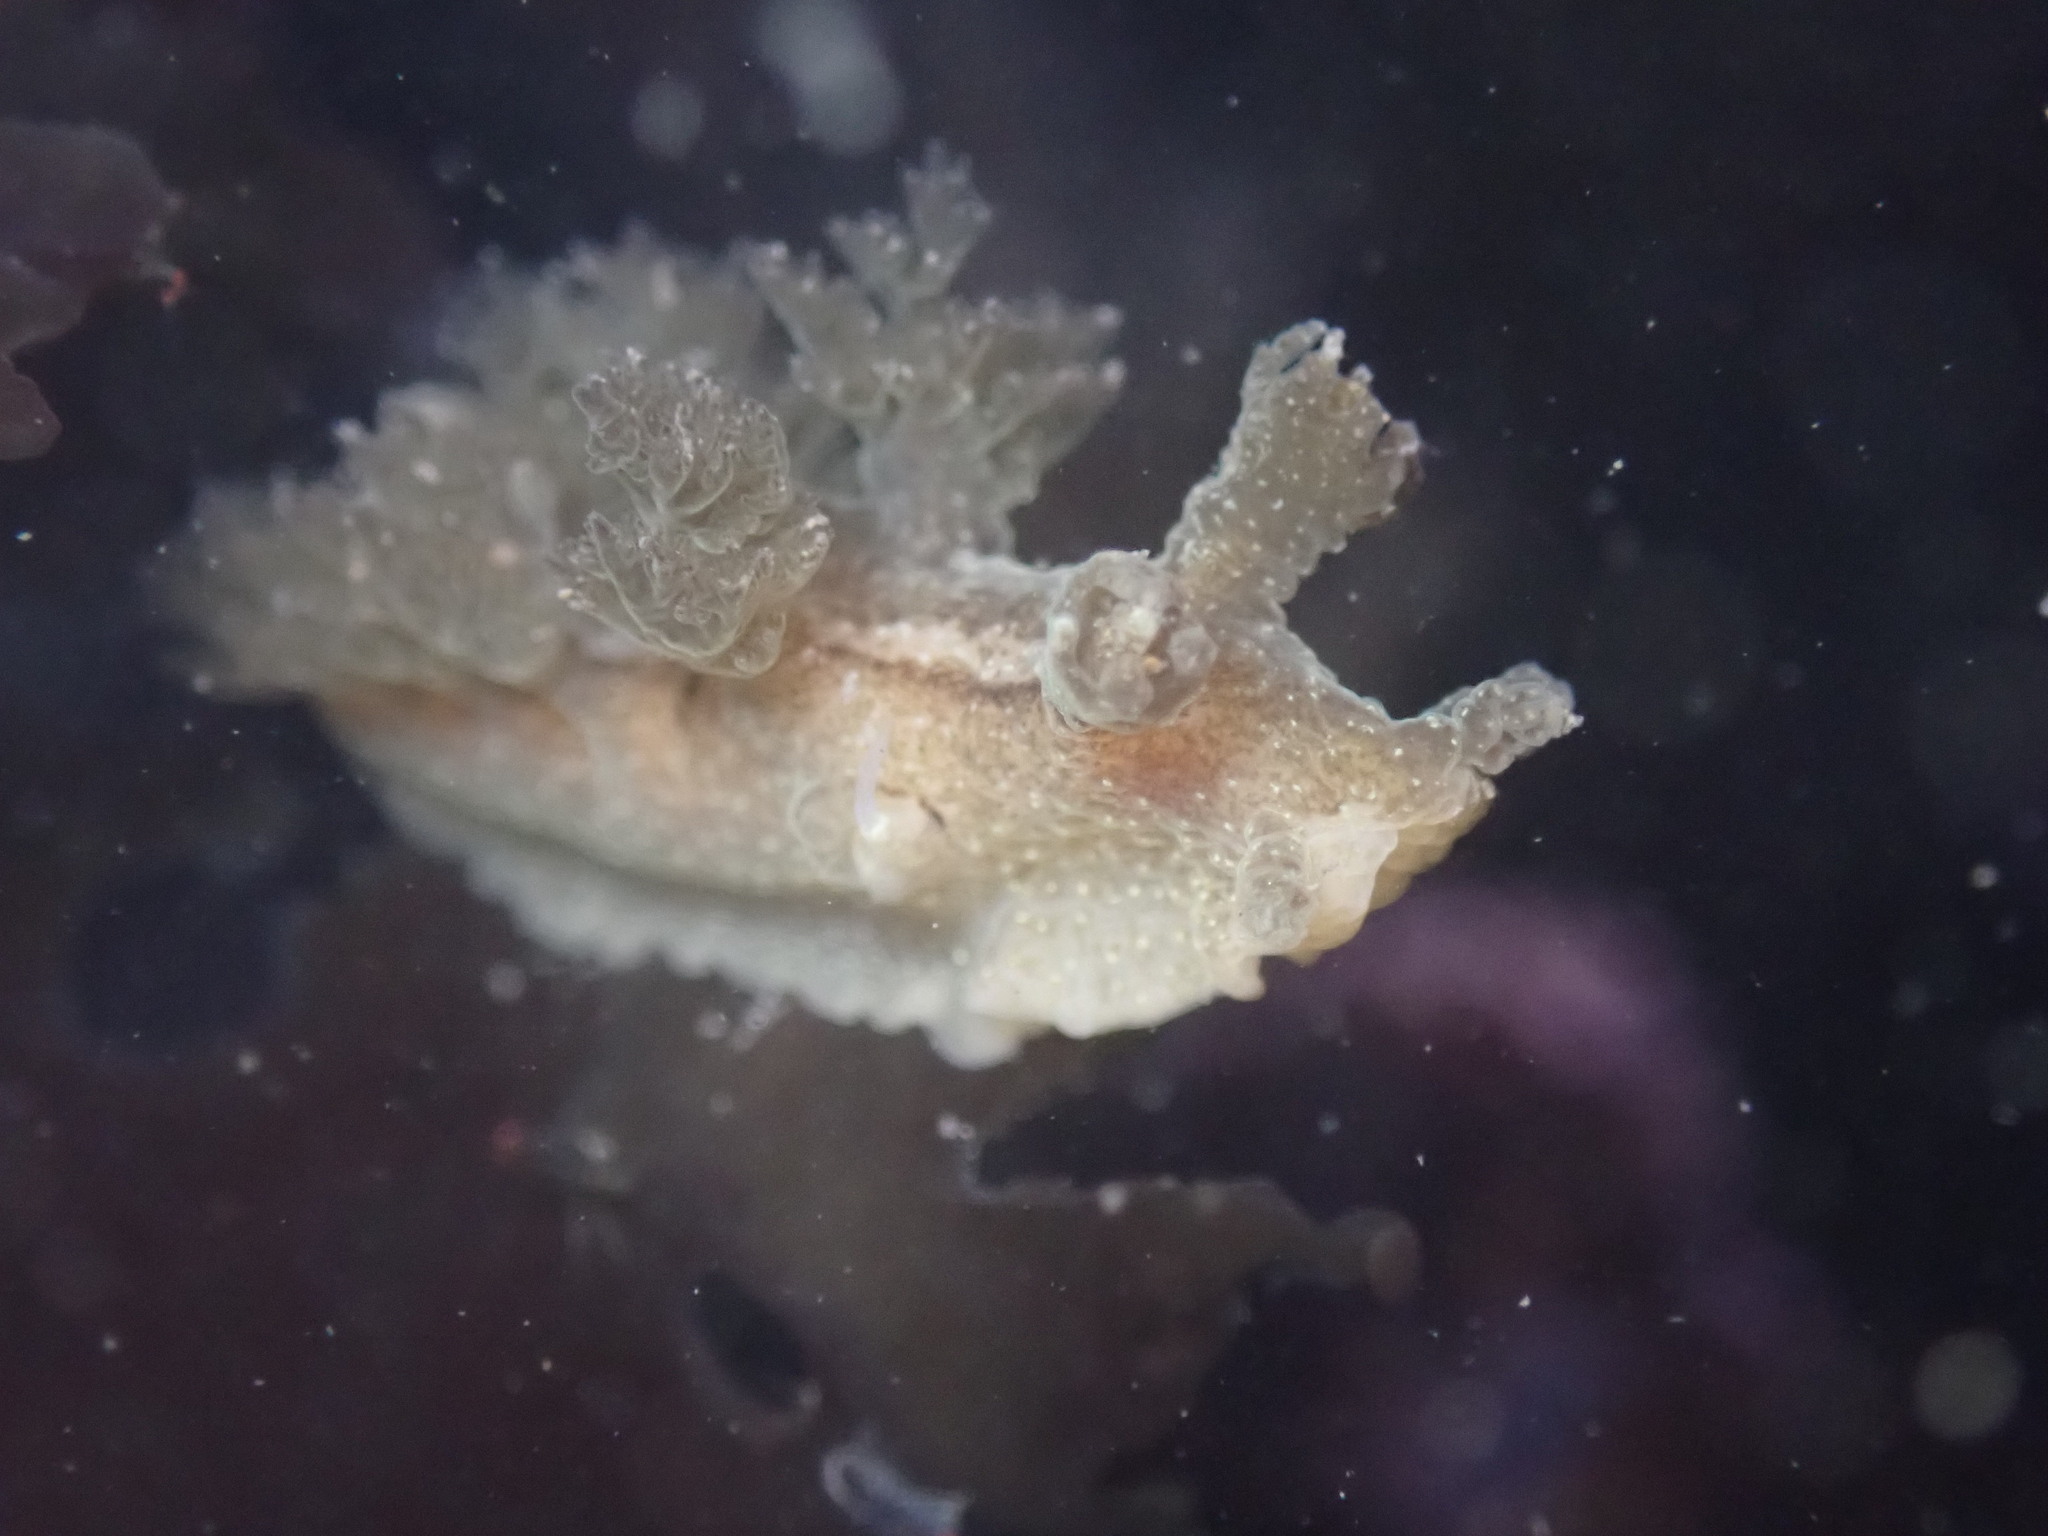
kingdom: Animalia
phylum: Mollusca
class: Gastropoda
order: Nudibranchia
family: Dendronotidae
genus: Dendronotus
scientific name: Dendronotus subramosus
